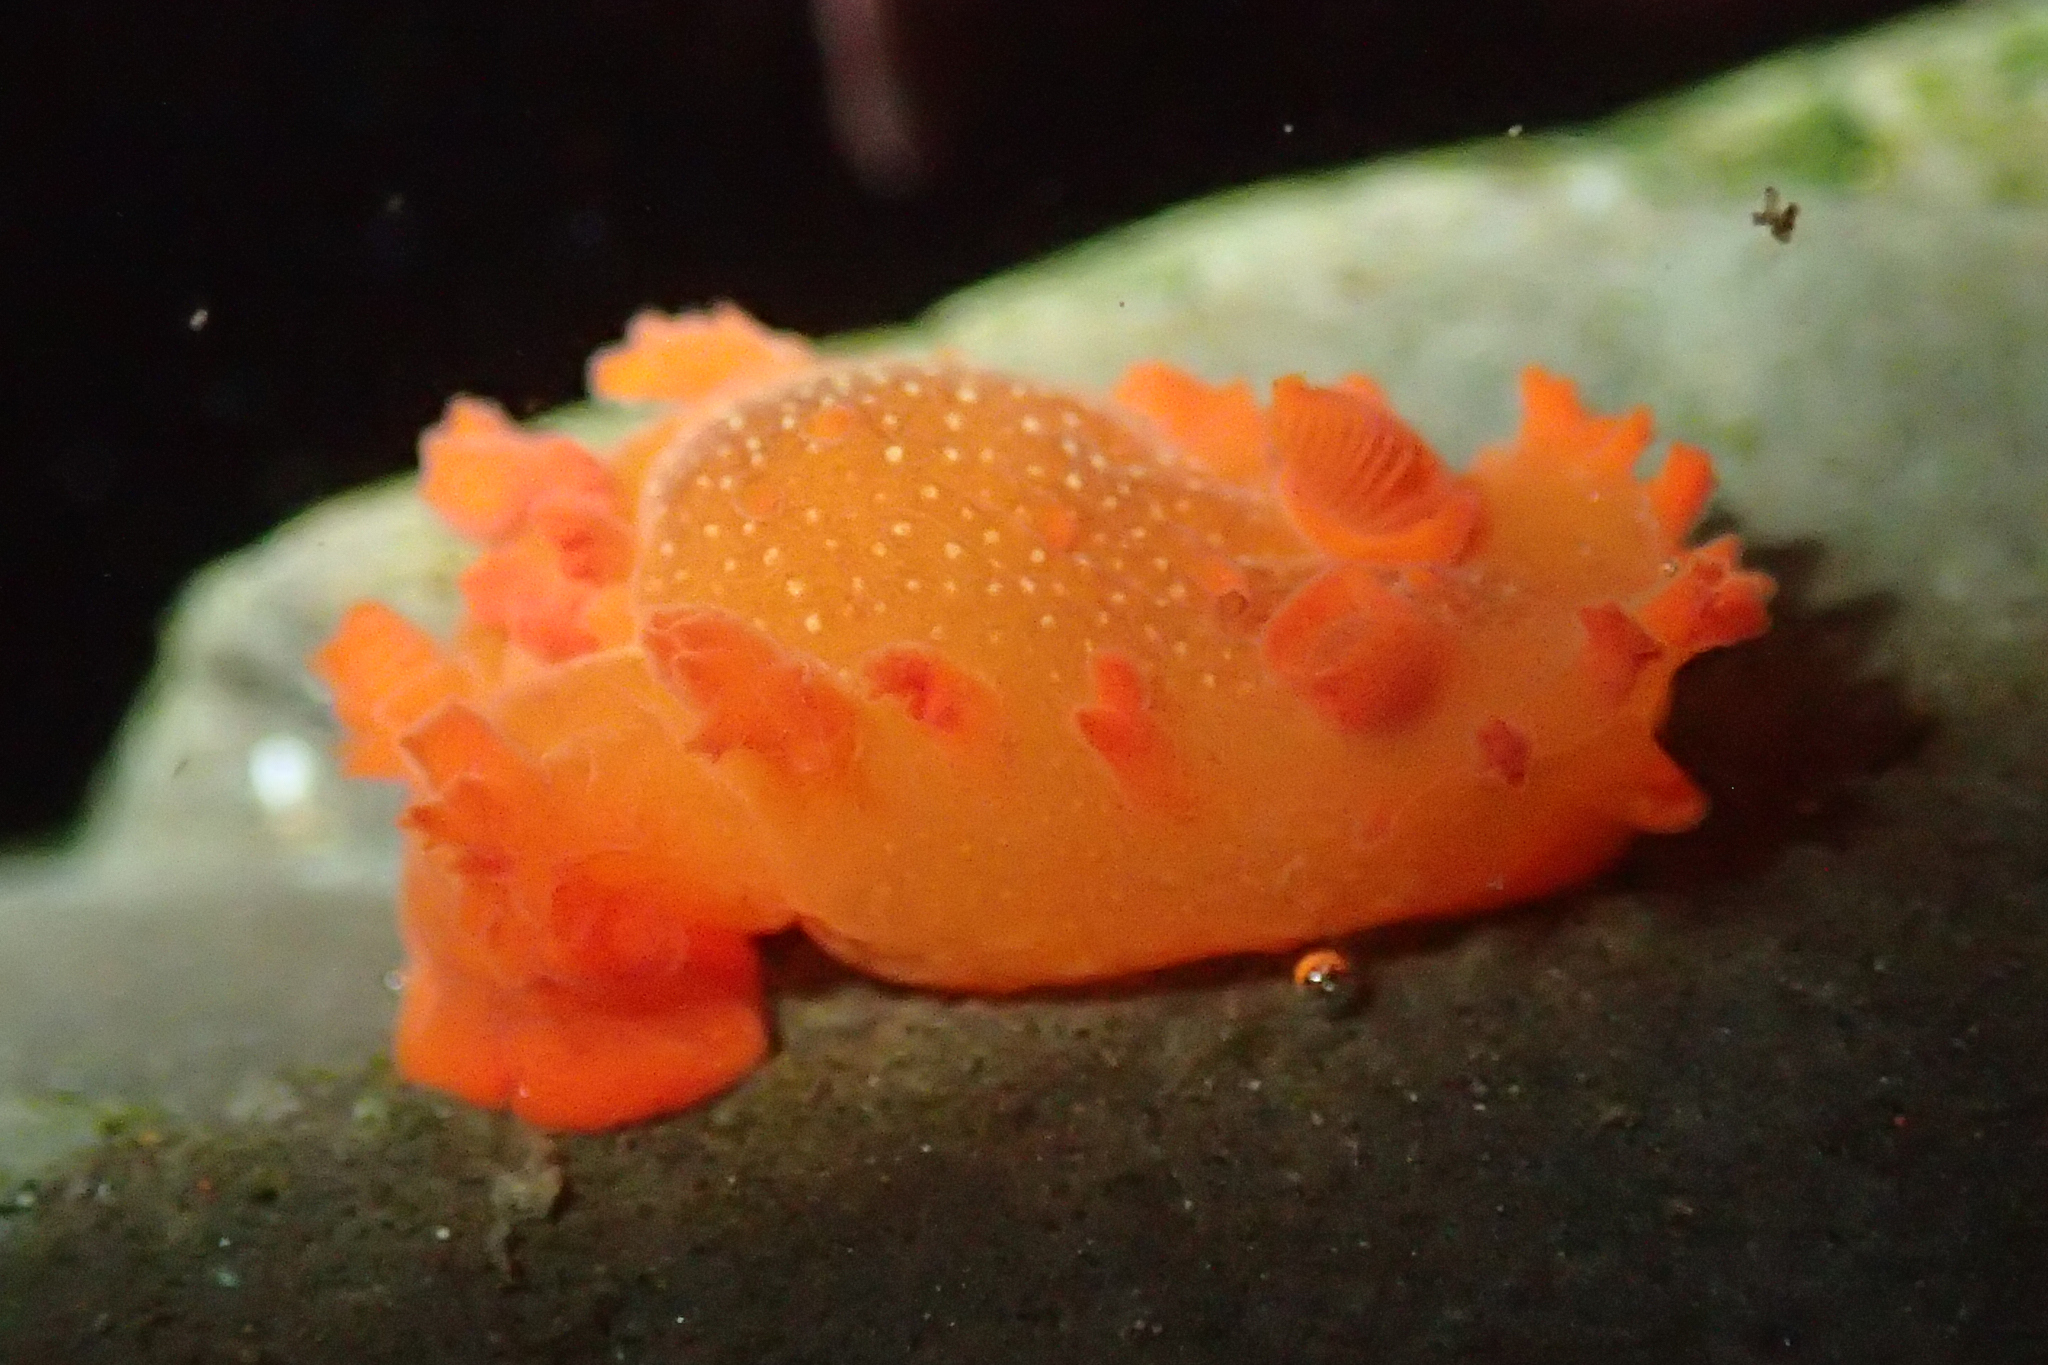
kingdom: Animalia
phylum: Mollusca
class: Gastropoda
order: Nudibranchia
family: Polyceridae
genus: Triopha
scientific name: Triopha maculata
